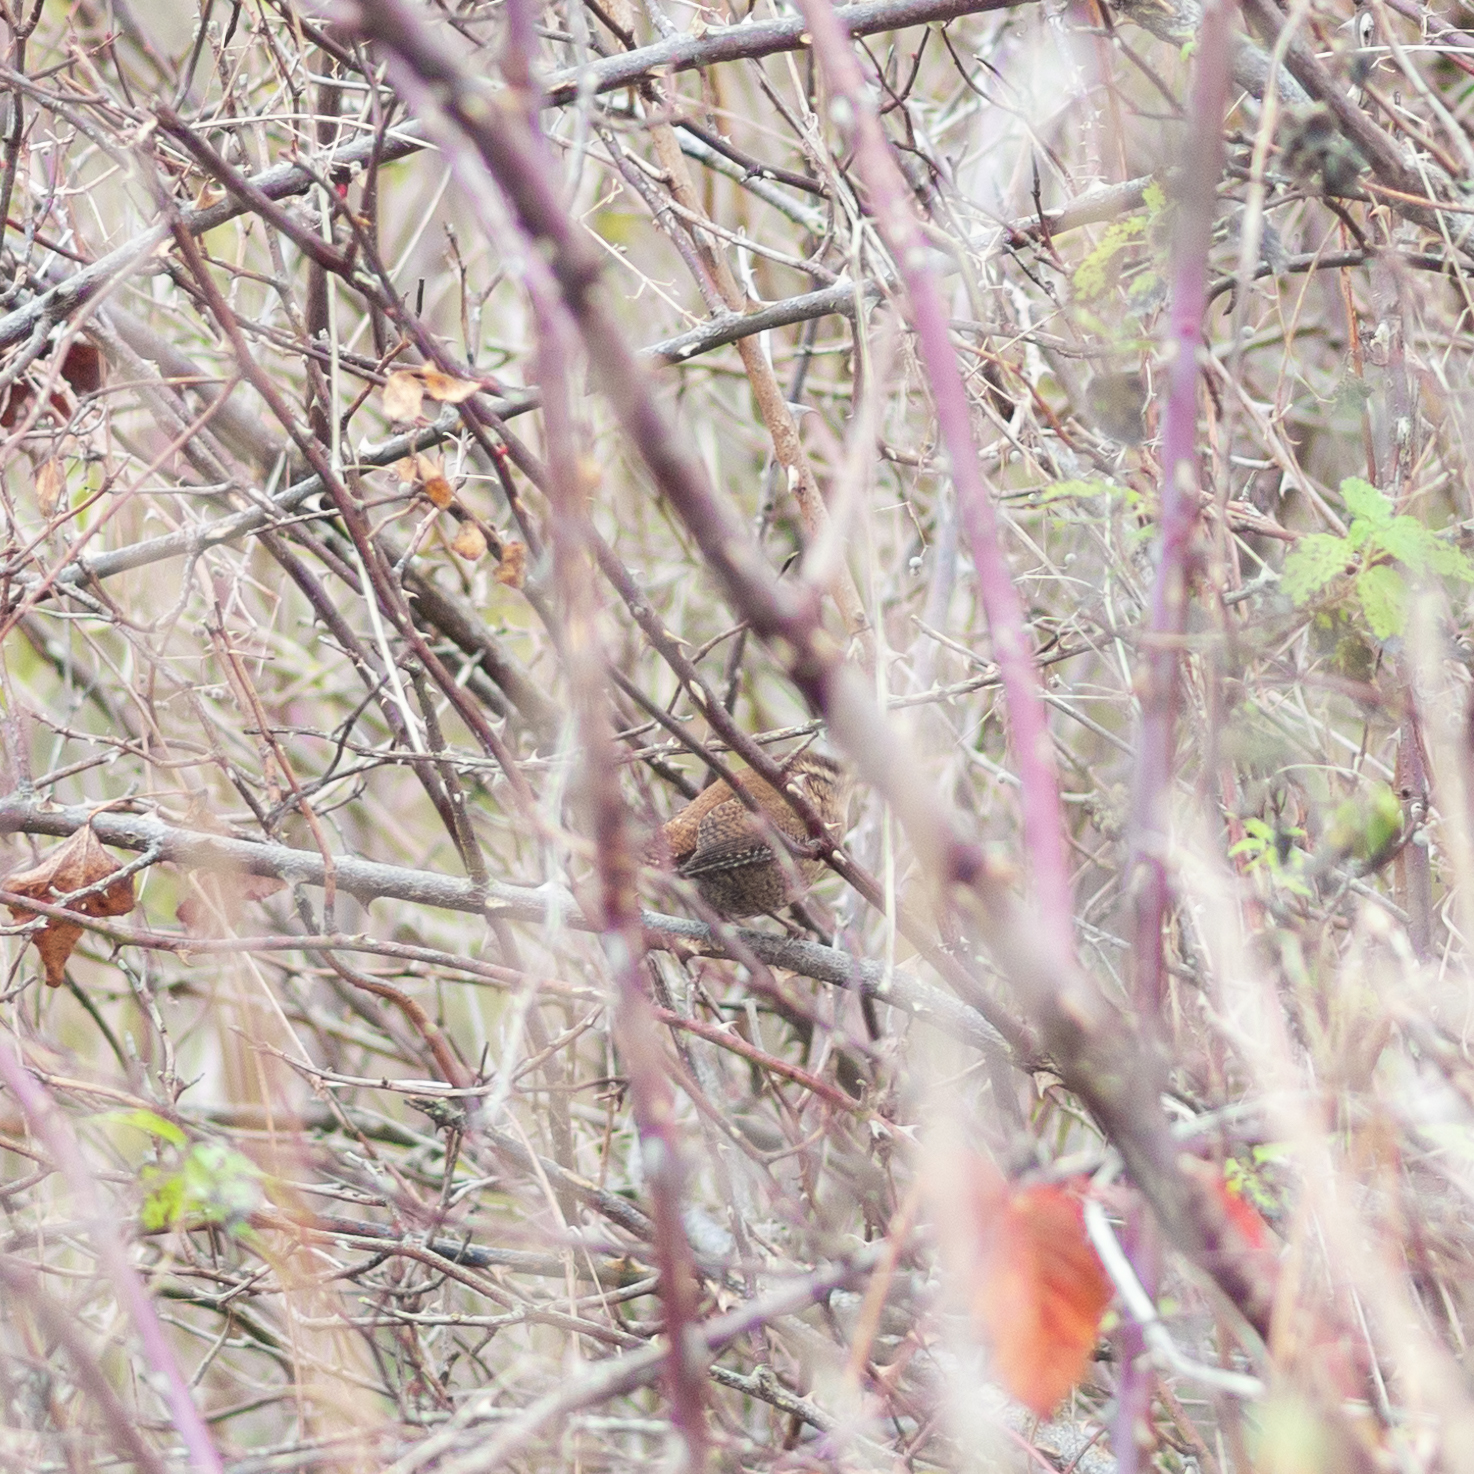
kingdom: Animalia
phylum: Chordata
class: Aves
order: Passeriformes
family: Troglodytidae
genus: Troglodytes
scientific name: Troglodytes troglodytes
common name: Eurasian wren
